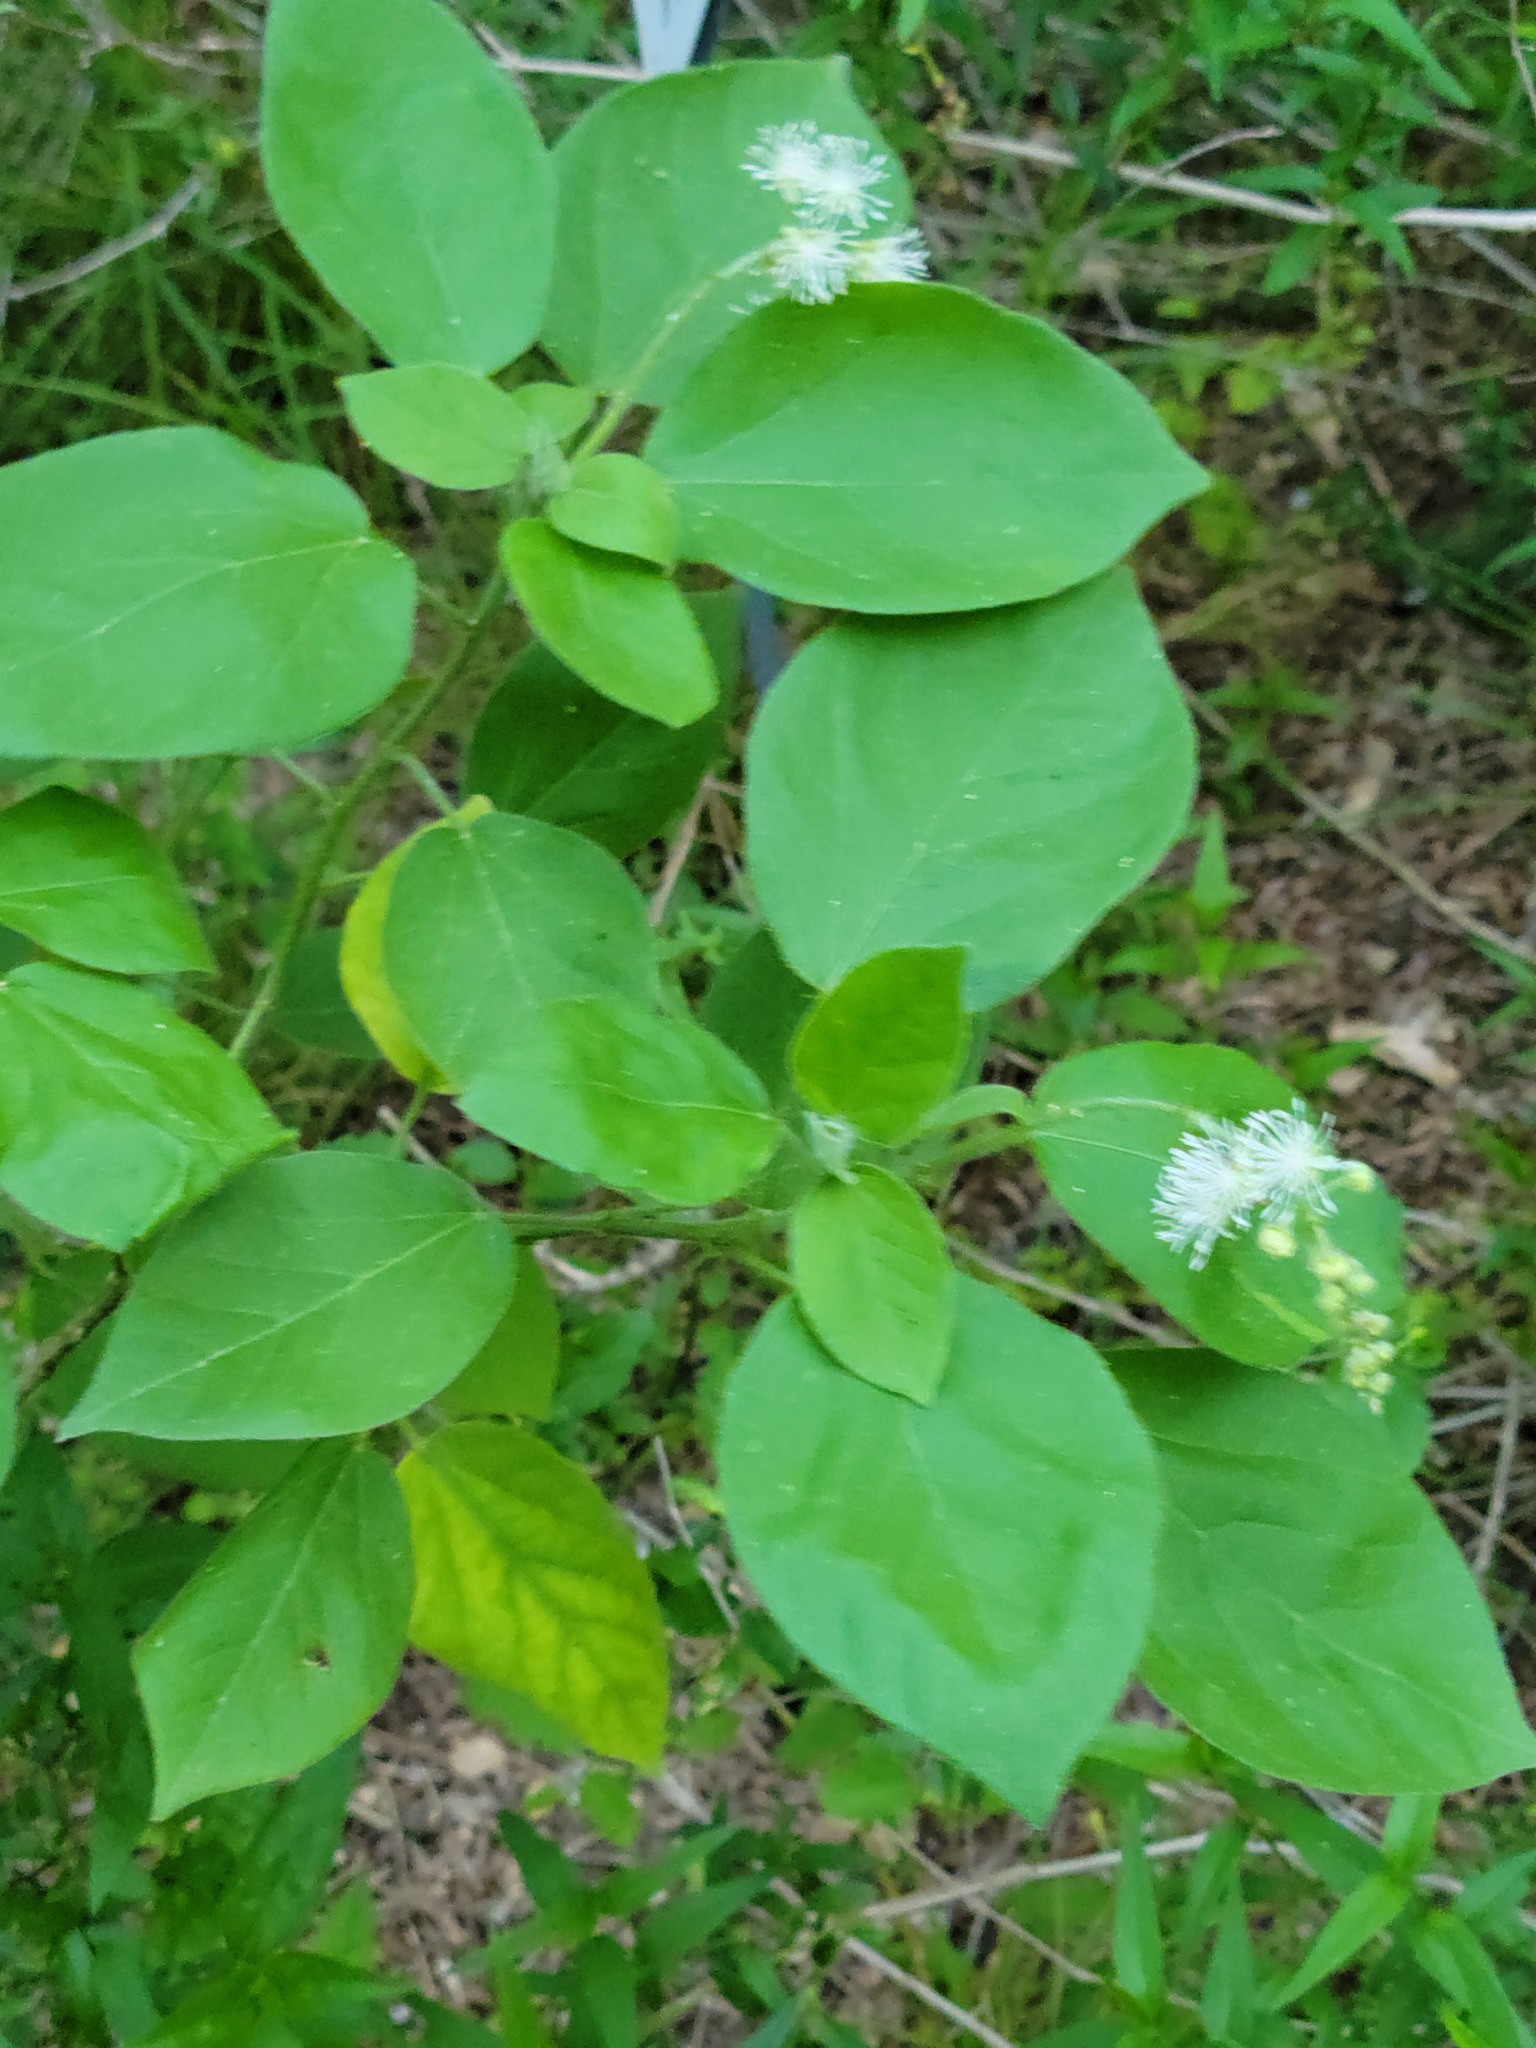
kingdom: Plantae
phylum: Tracheophyta
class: Magnoliopsida
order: Malpighiales
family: Euphorbiaceae
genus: Croton
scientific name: Croton ciliatoglandulifer
